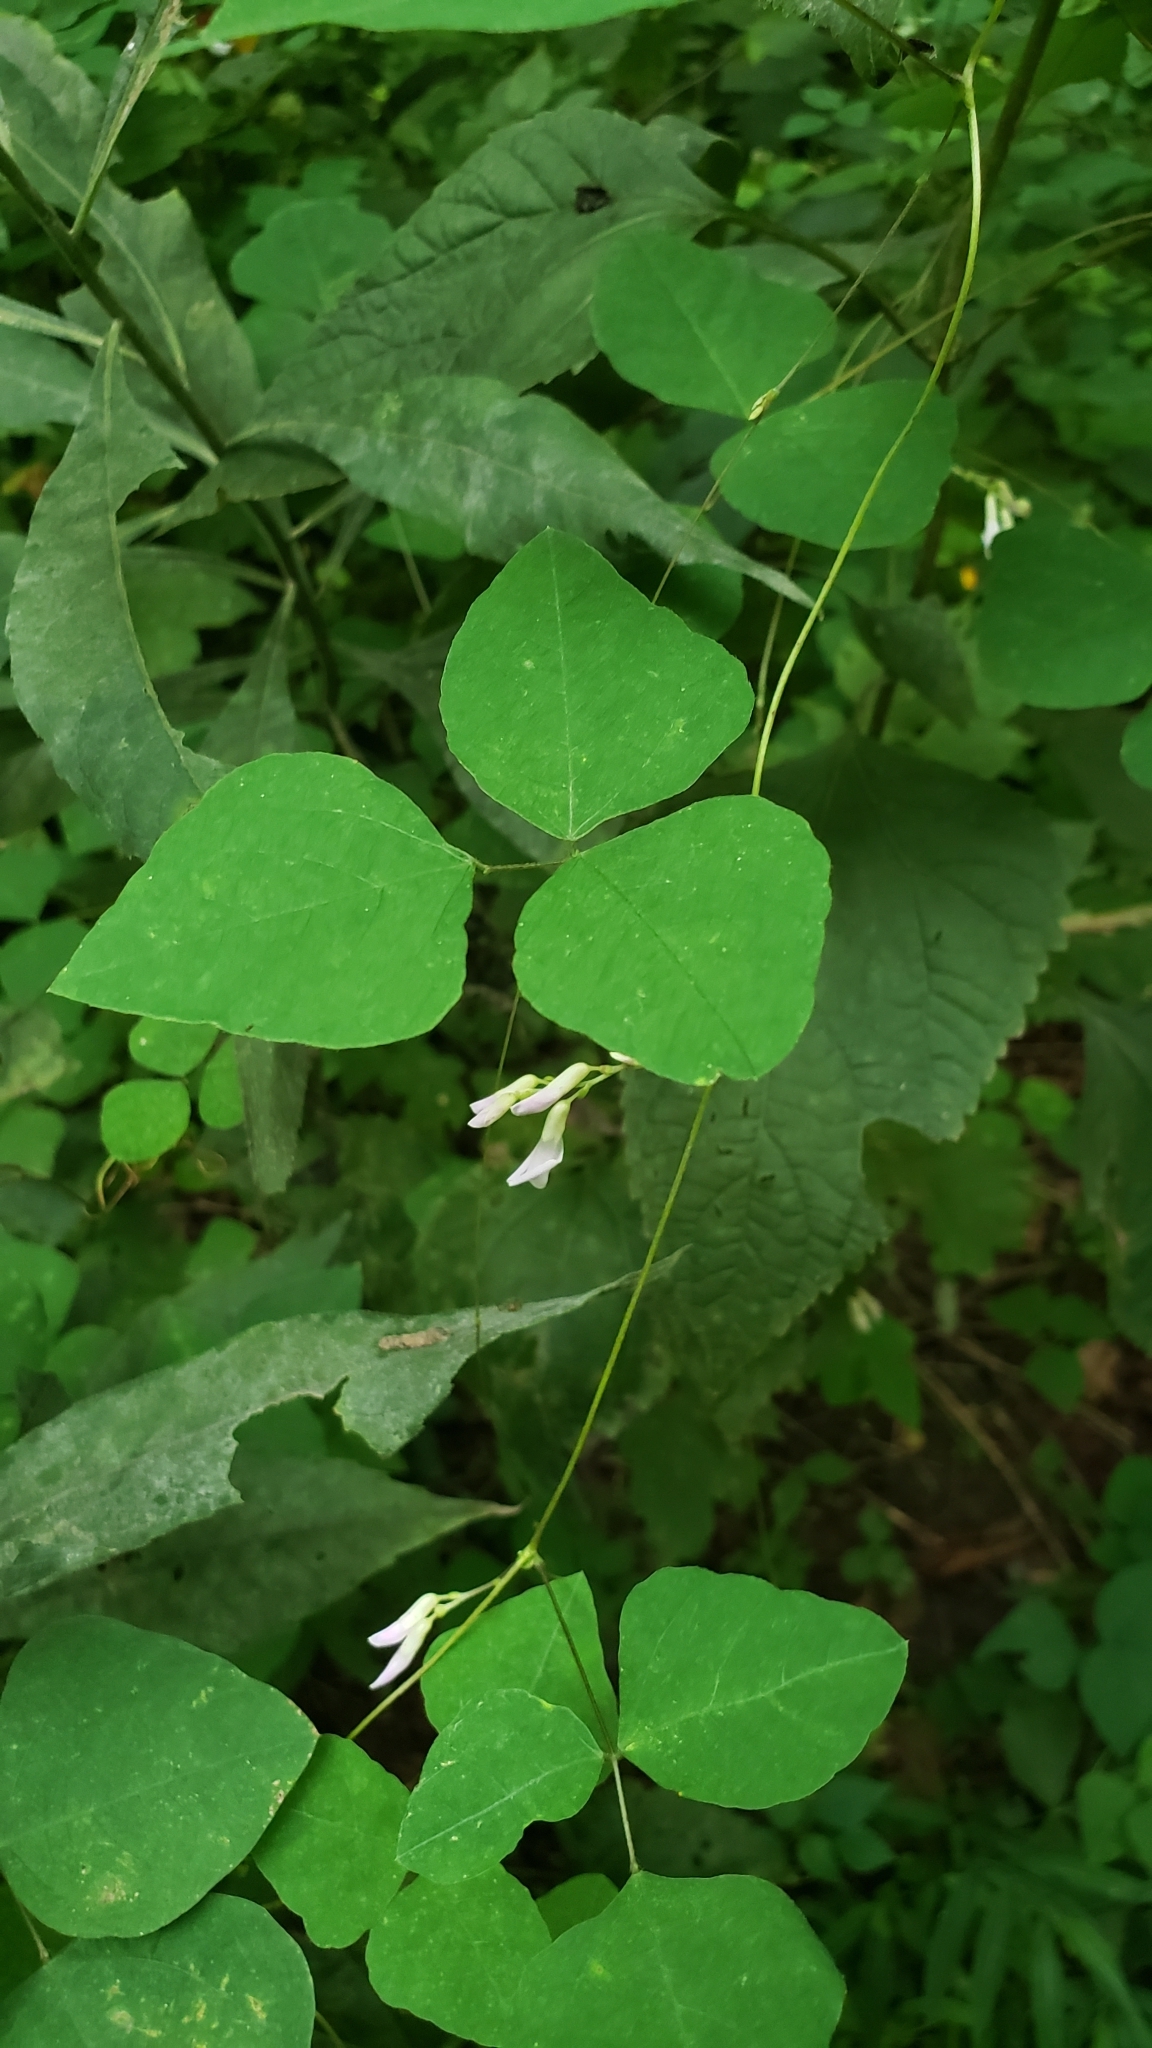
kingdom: Plantae
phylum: Tracheophyta
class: Magnoliopsida
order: Fabales
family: Fabaceae
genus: Amphicarpaea
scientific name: Amphicarpaea bracteata
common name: American hog peanut
